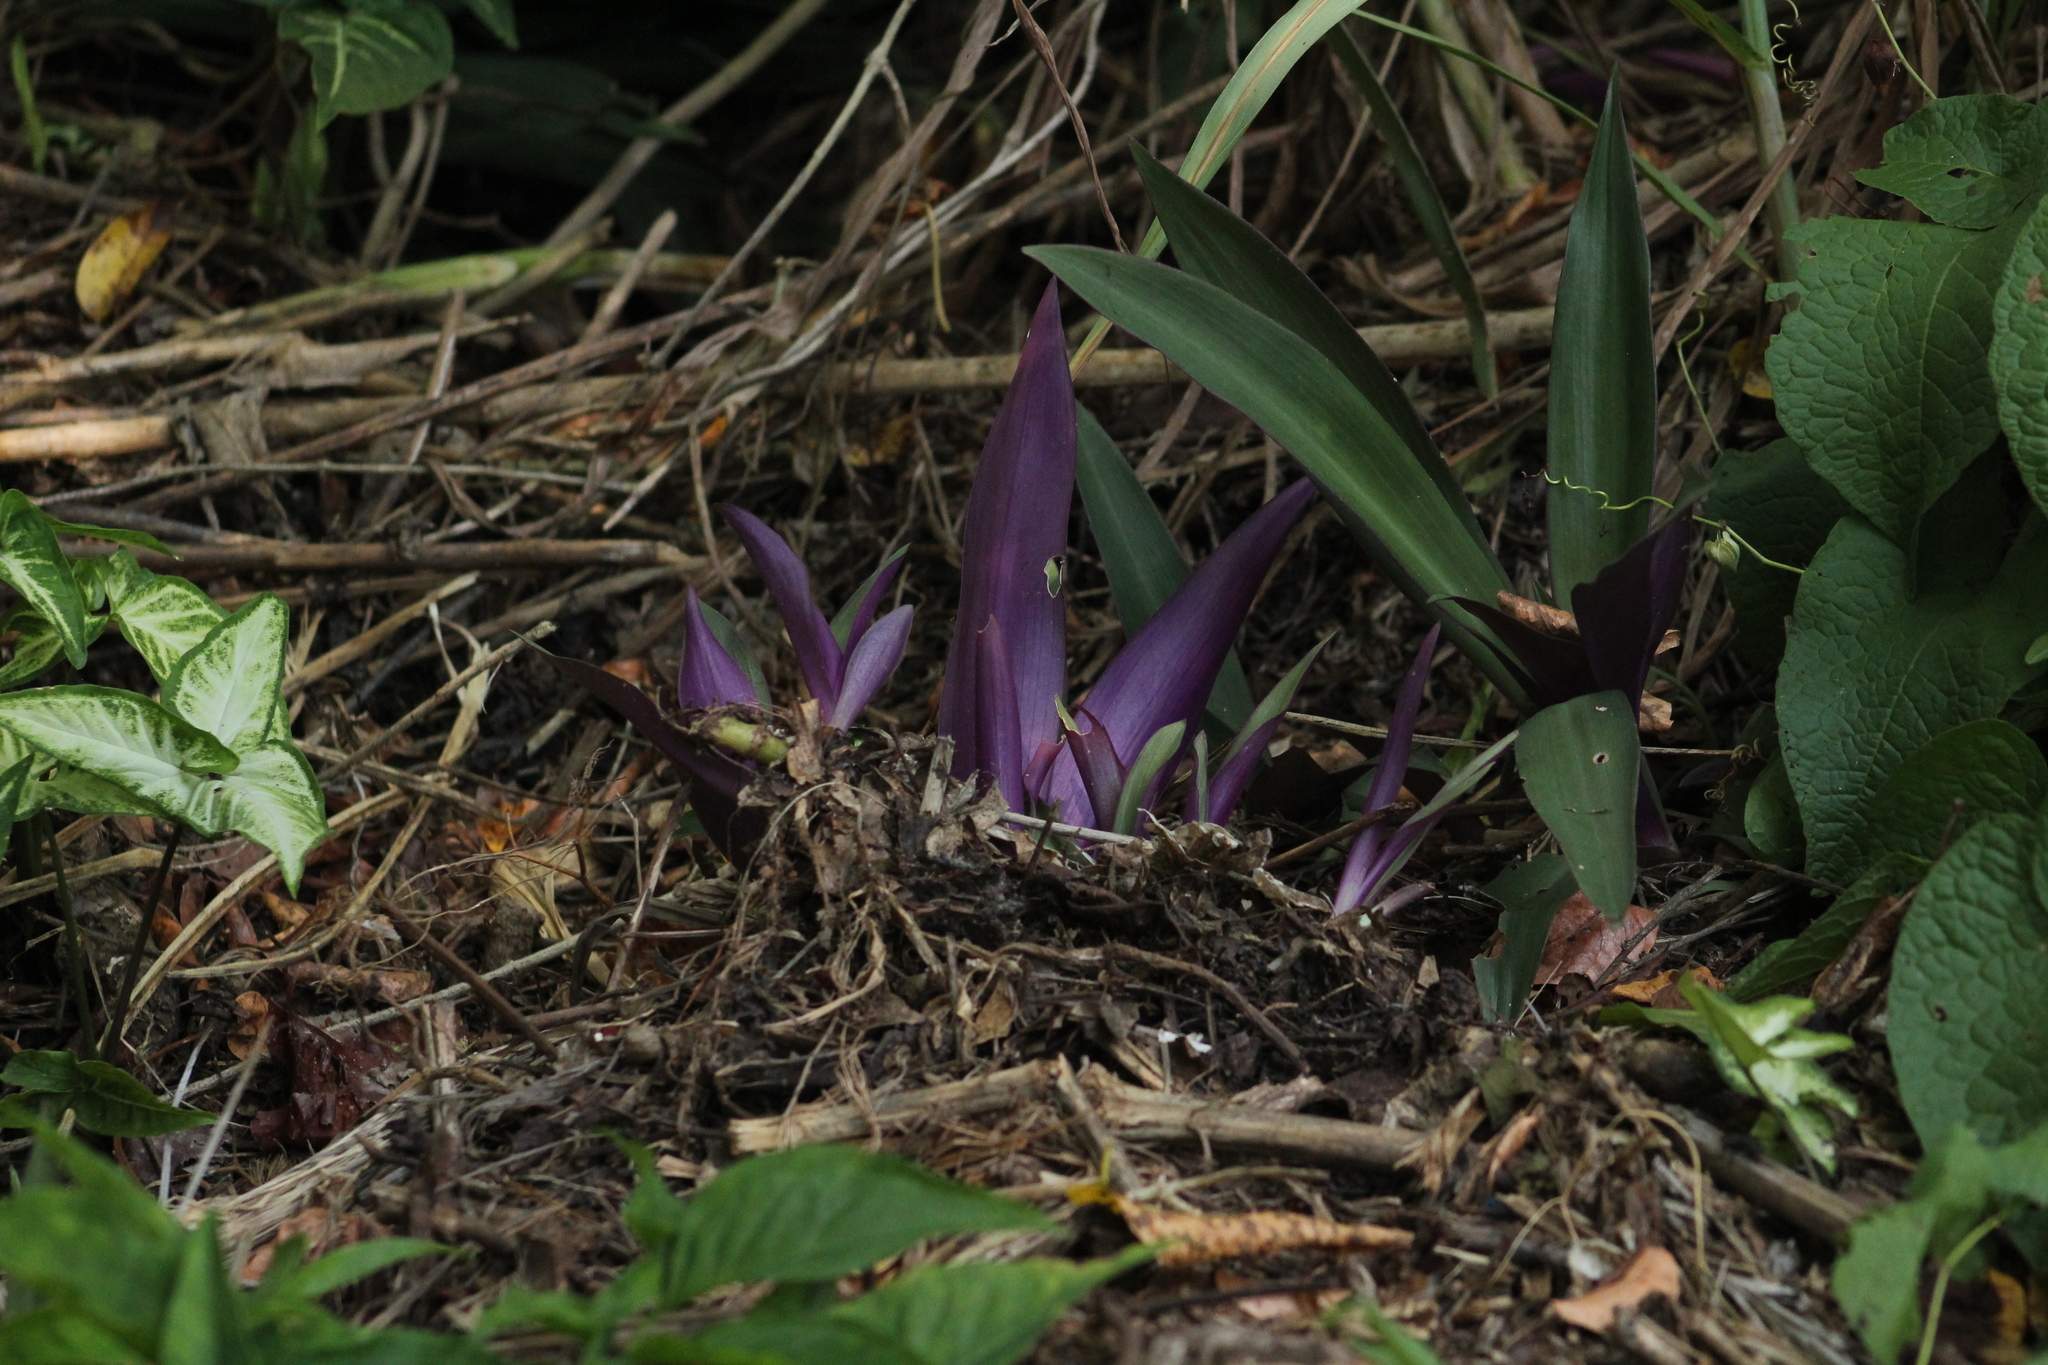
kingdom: Plantae
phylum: Tracheophyta
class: Liliopsida
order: Commelinales
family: Commelinaceae
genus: Tradescantia
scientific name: Tradescantia spathacea
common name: Boatlily
